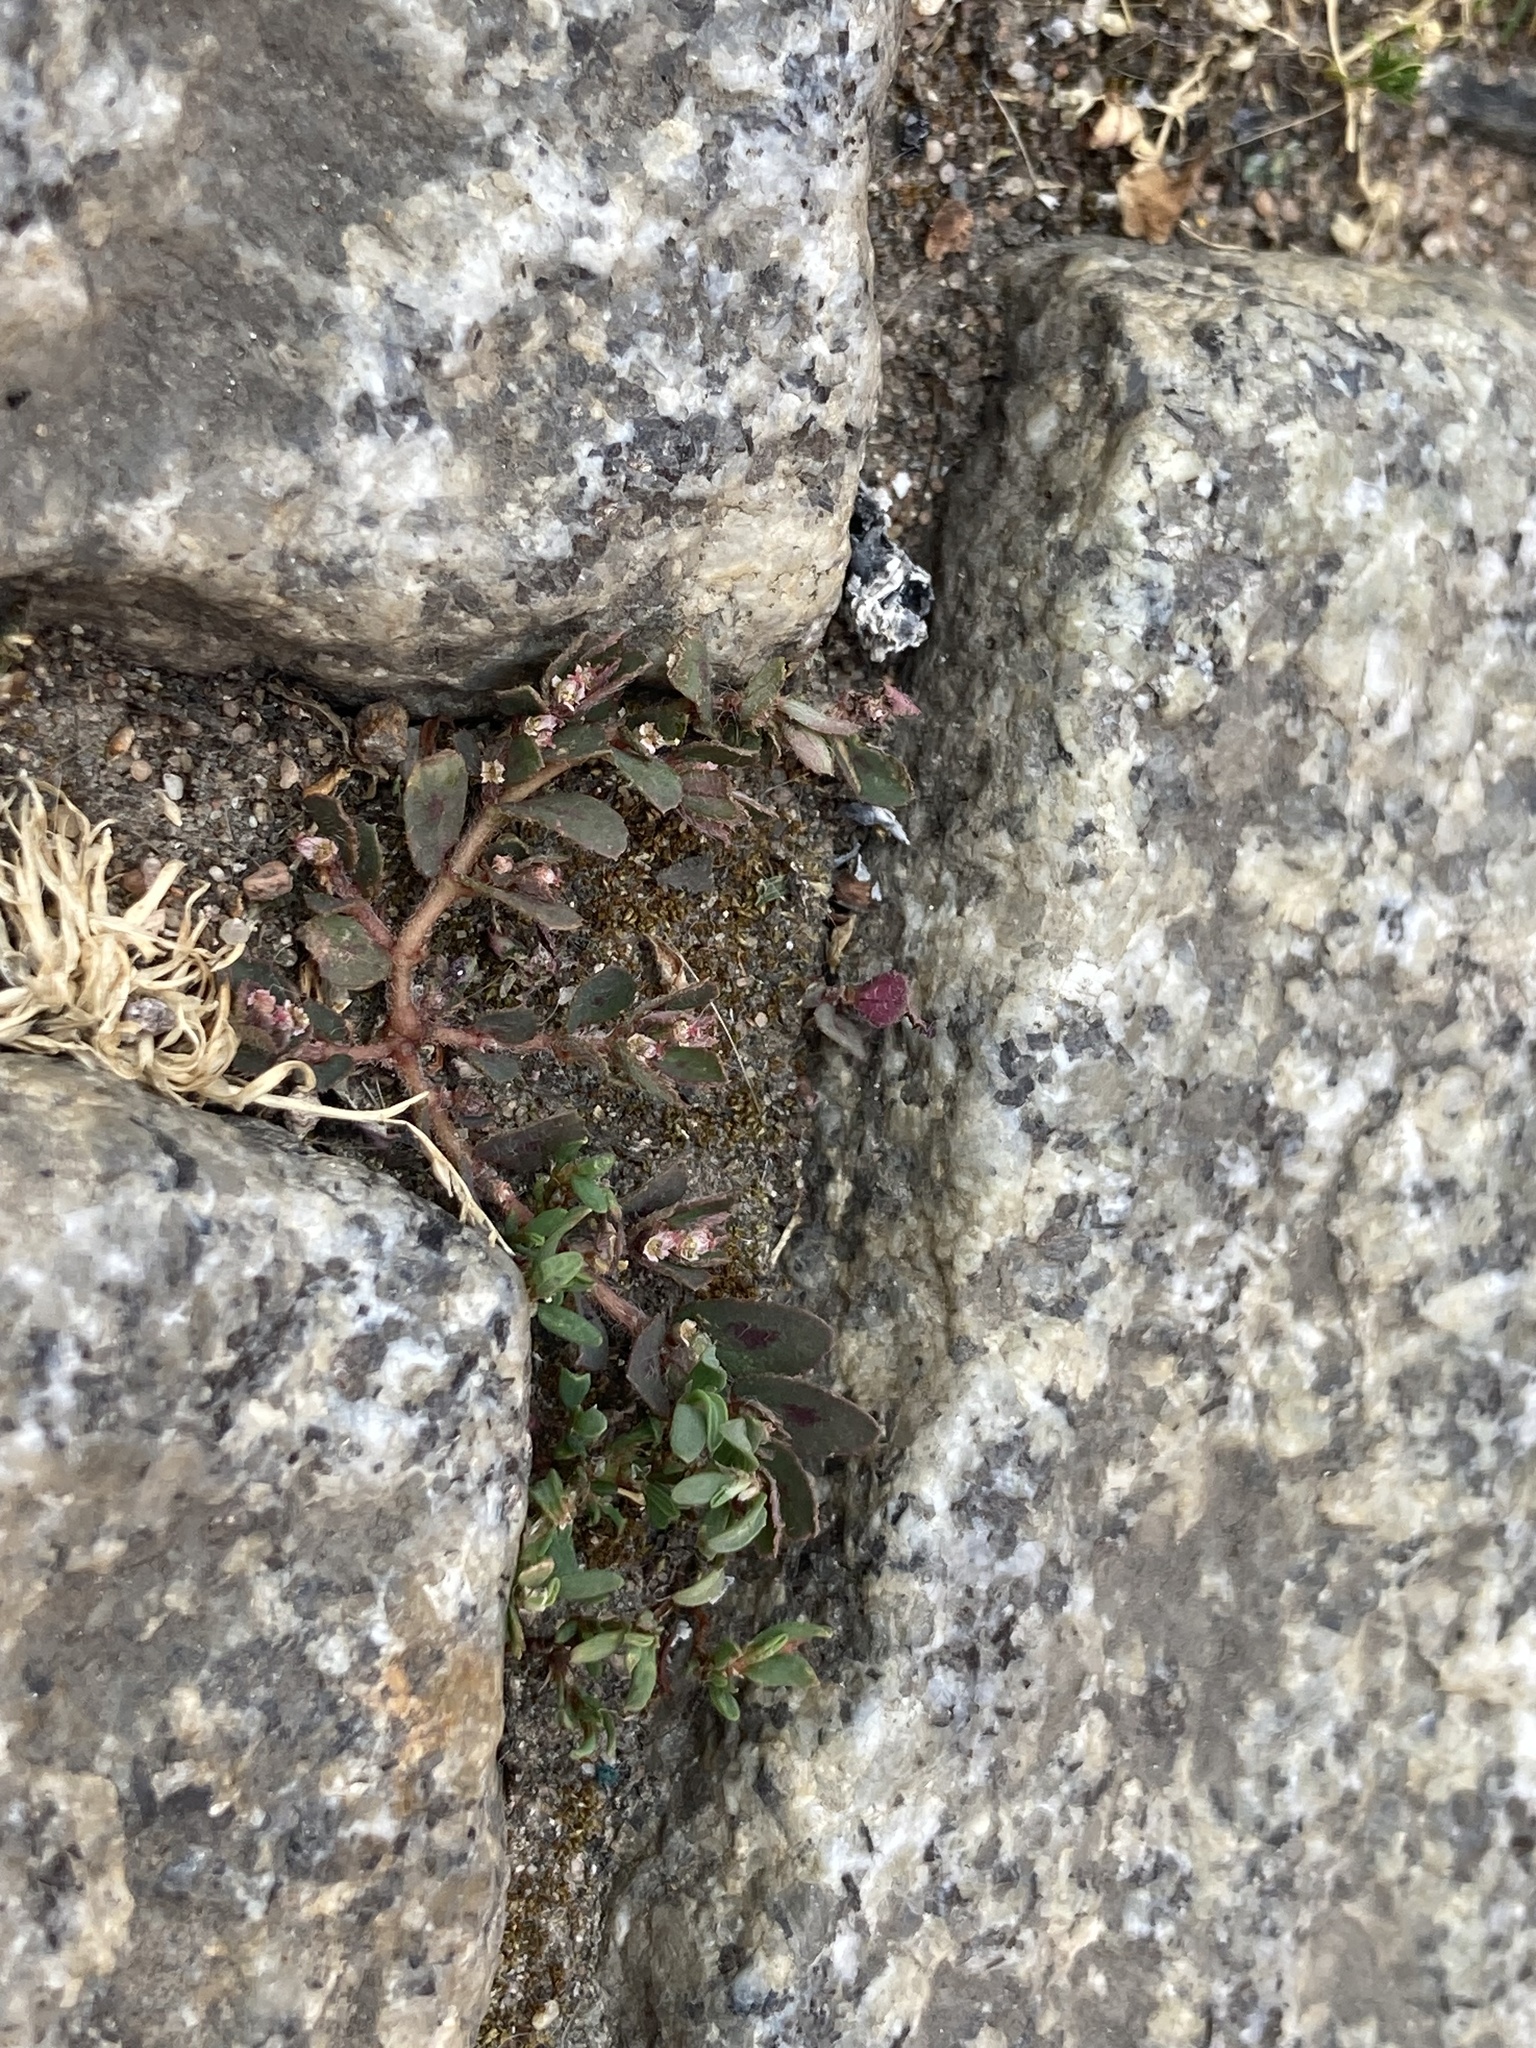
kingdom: Plantae
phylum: Tracheophyta
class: Magnoliopsida
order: Malpighiales
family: Euphorbiaceae
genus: Euphorbia
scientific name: Euphorbia maculata
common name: Spotted spurge
